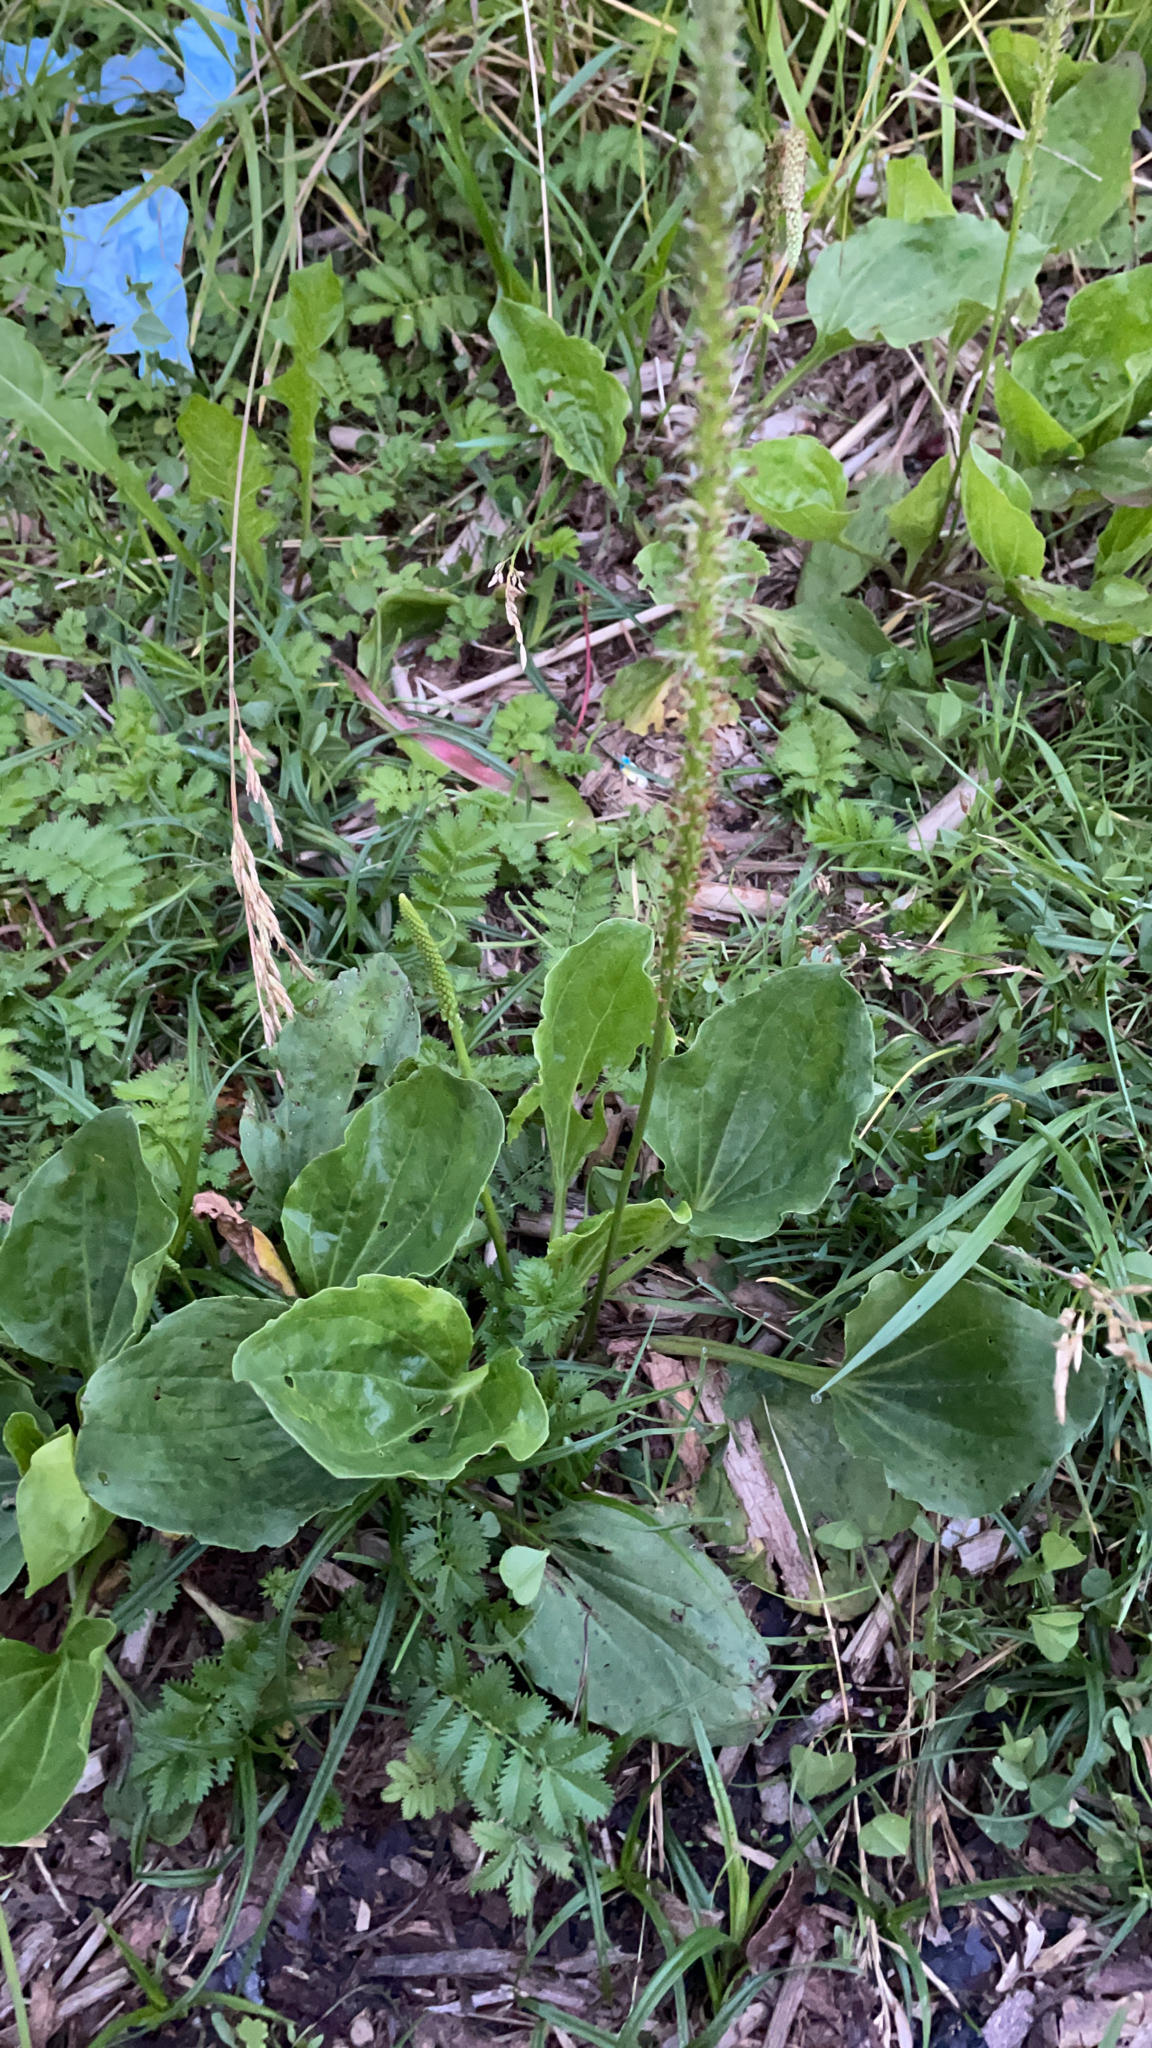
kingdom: Plantae
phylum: Tracheophyta
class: Magnoliopsida
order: Lamiales
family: Plantaginaceae
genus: Plantago
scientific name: Plantago major
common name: Common plantain
